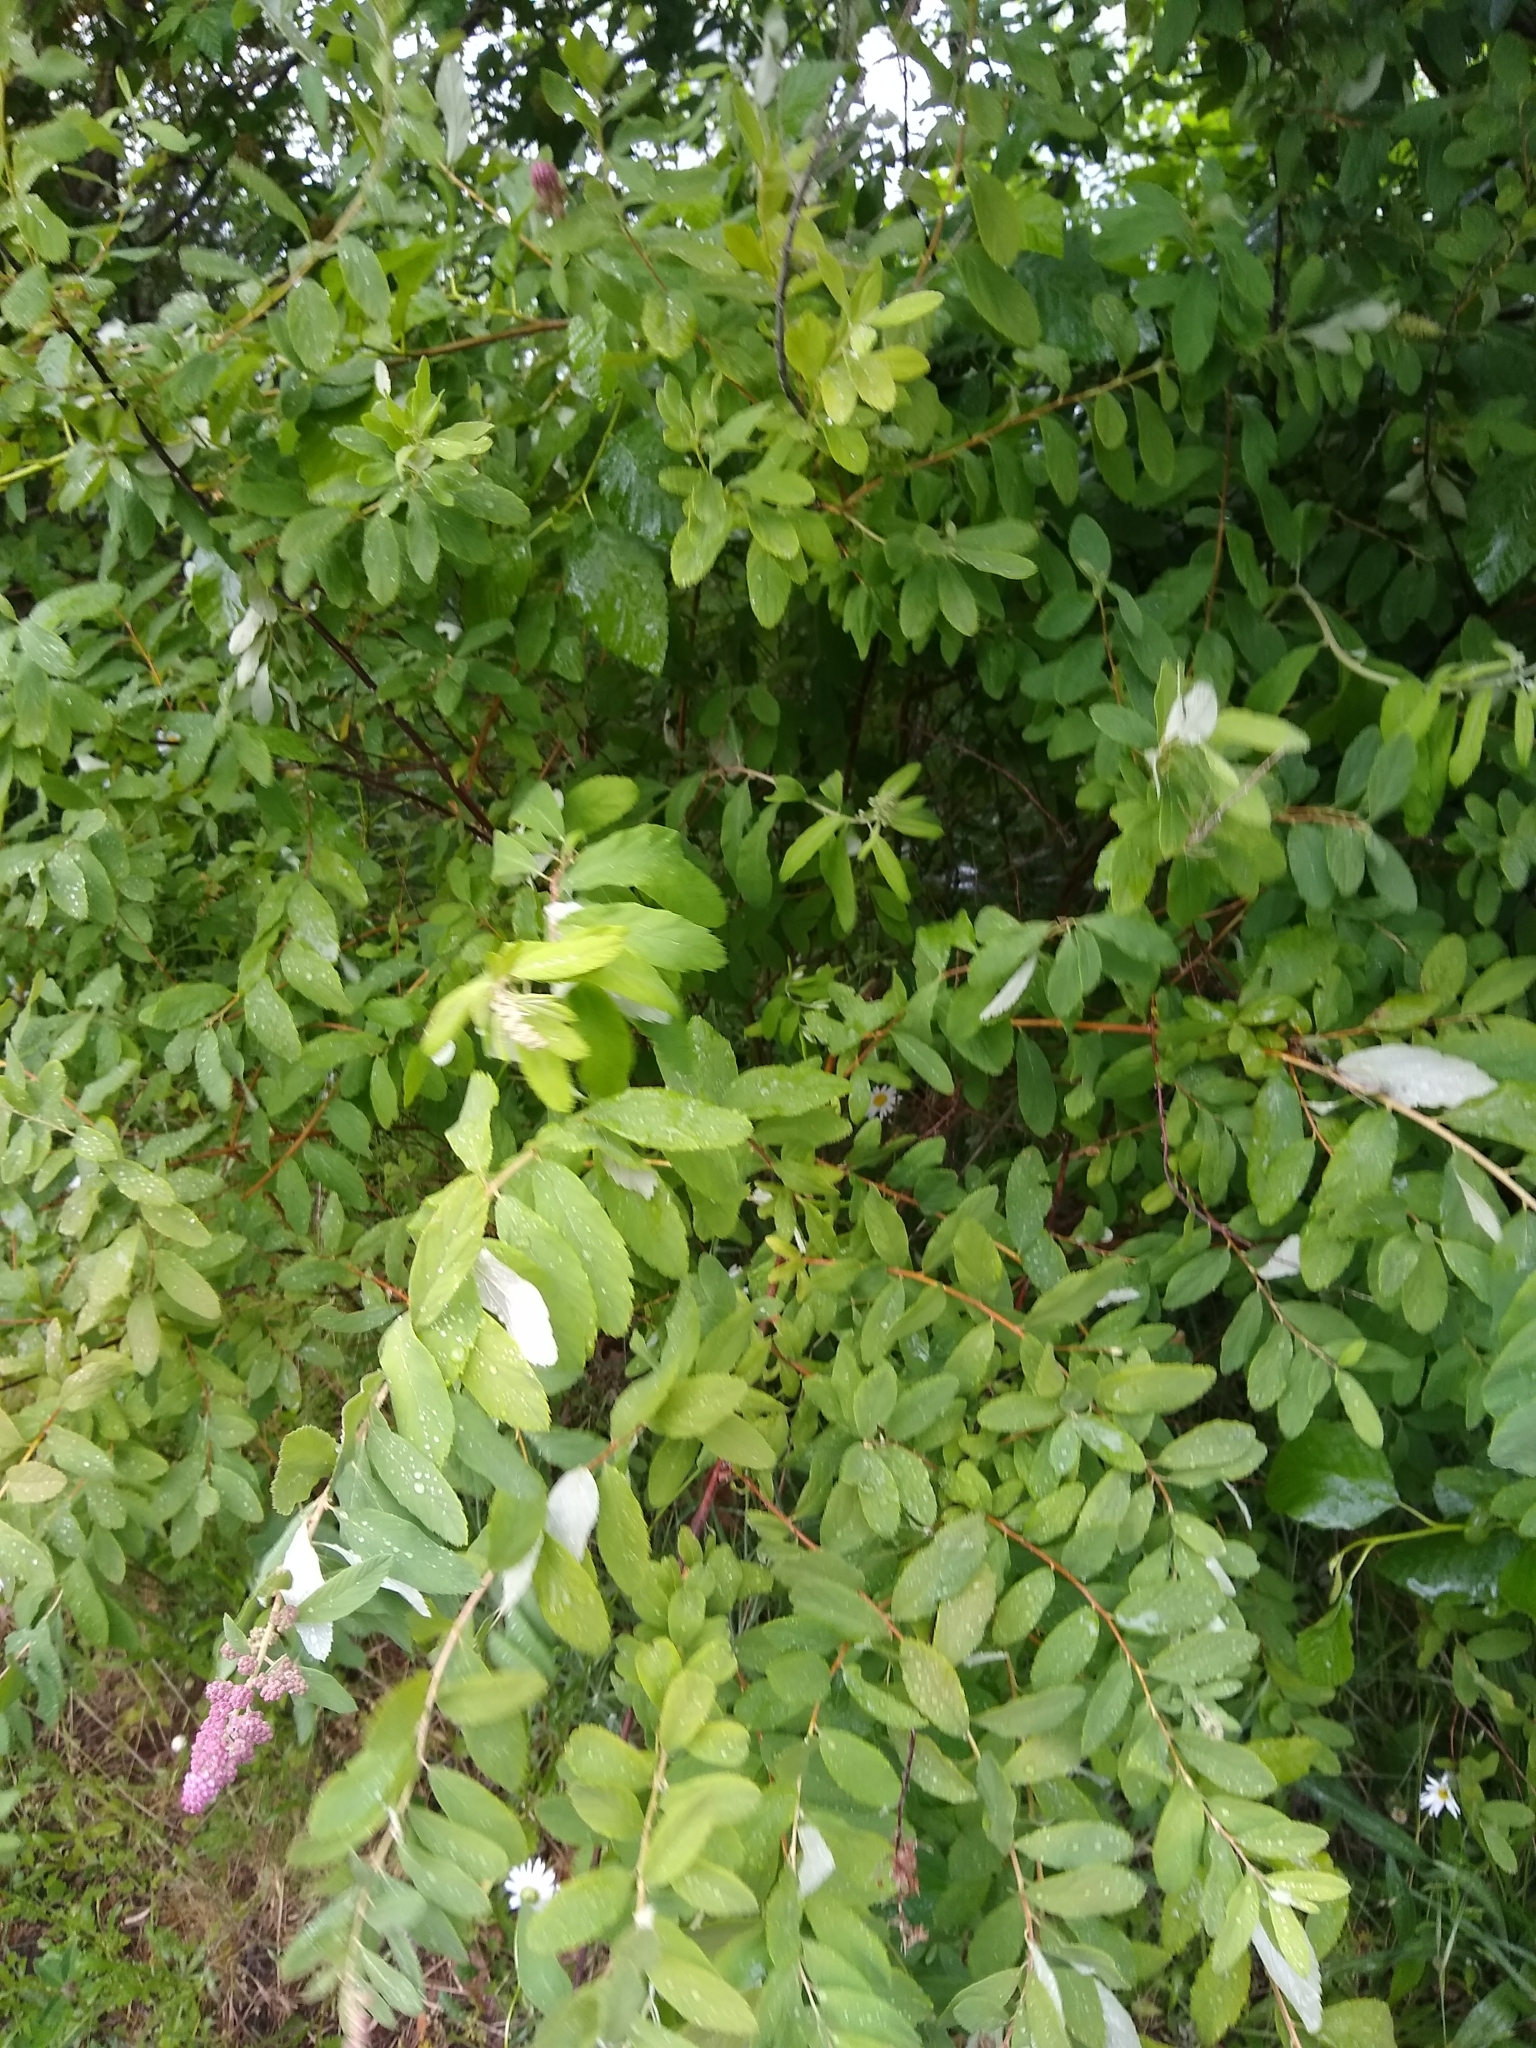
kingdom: Plantae
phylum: Tracheophyta
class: Magnoliopsida
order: Rosales
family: Rosaceae
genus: Spiraea
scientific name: Spiraea douglasii
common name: Steeplebush
